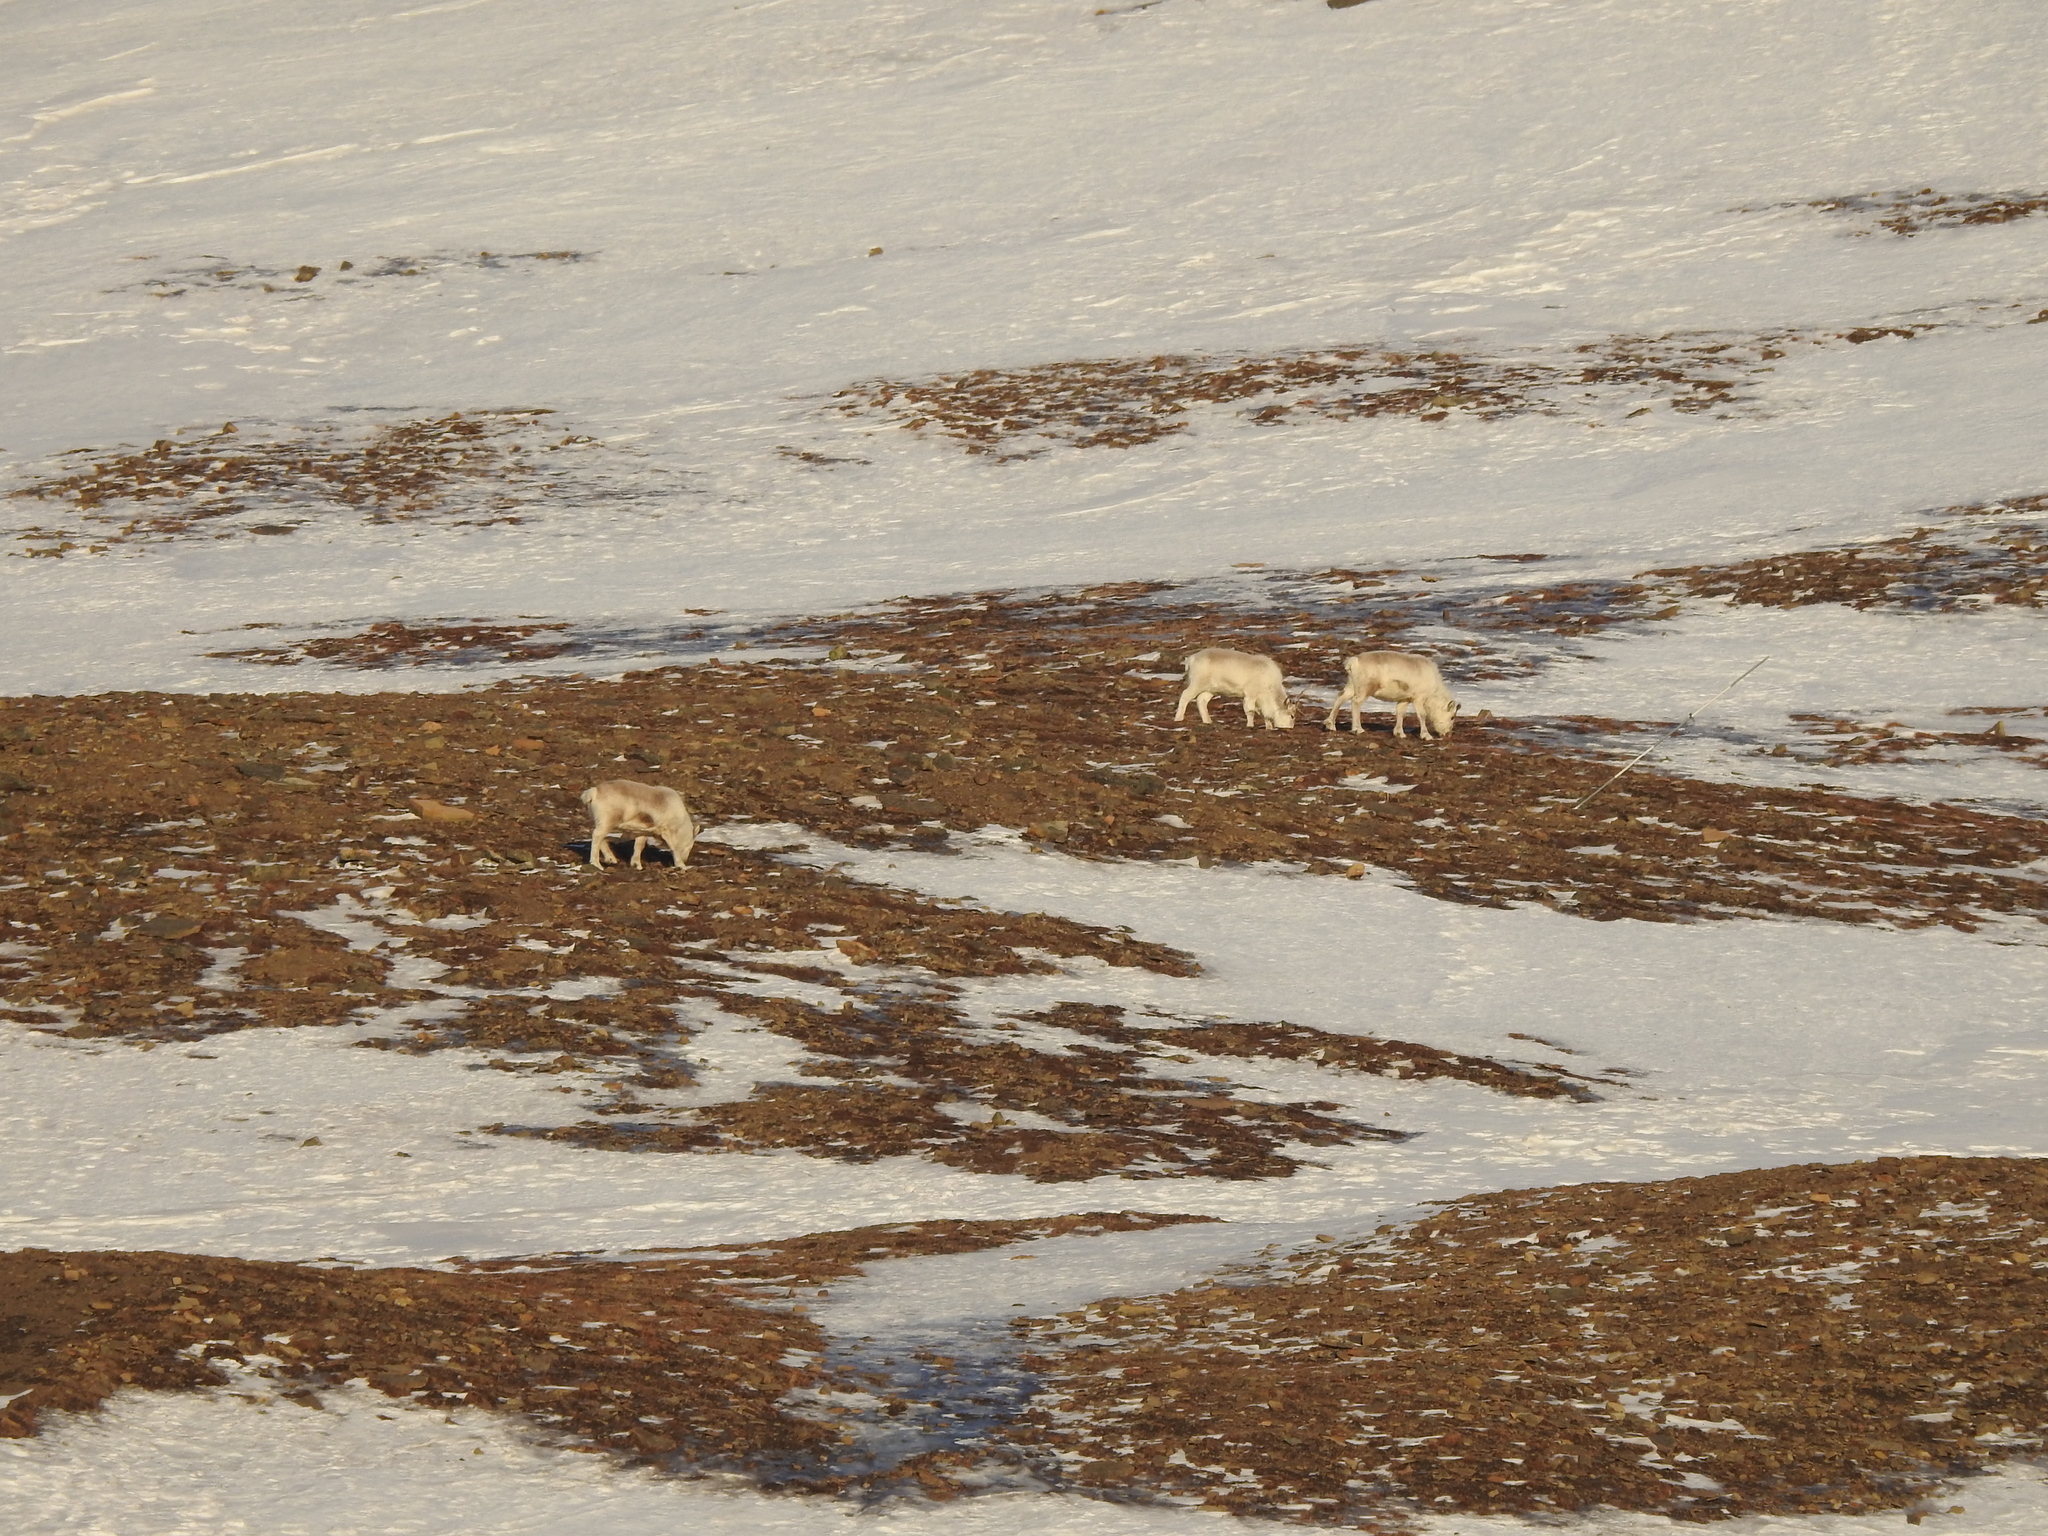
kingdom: Animalia
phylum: Chordata
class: Mammalia
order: Artiodactyla
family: Cervidae
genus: Rangifer
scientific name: Rangifer tarandus
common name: Reindeer
